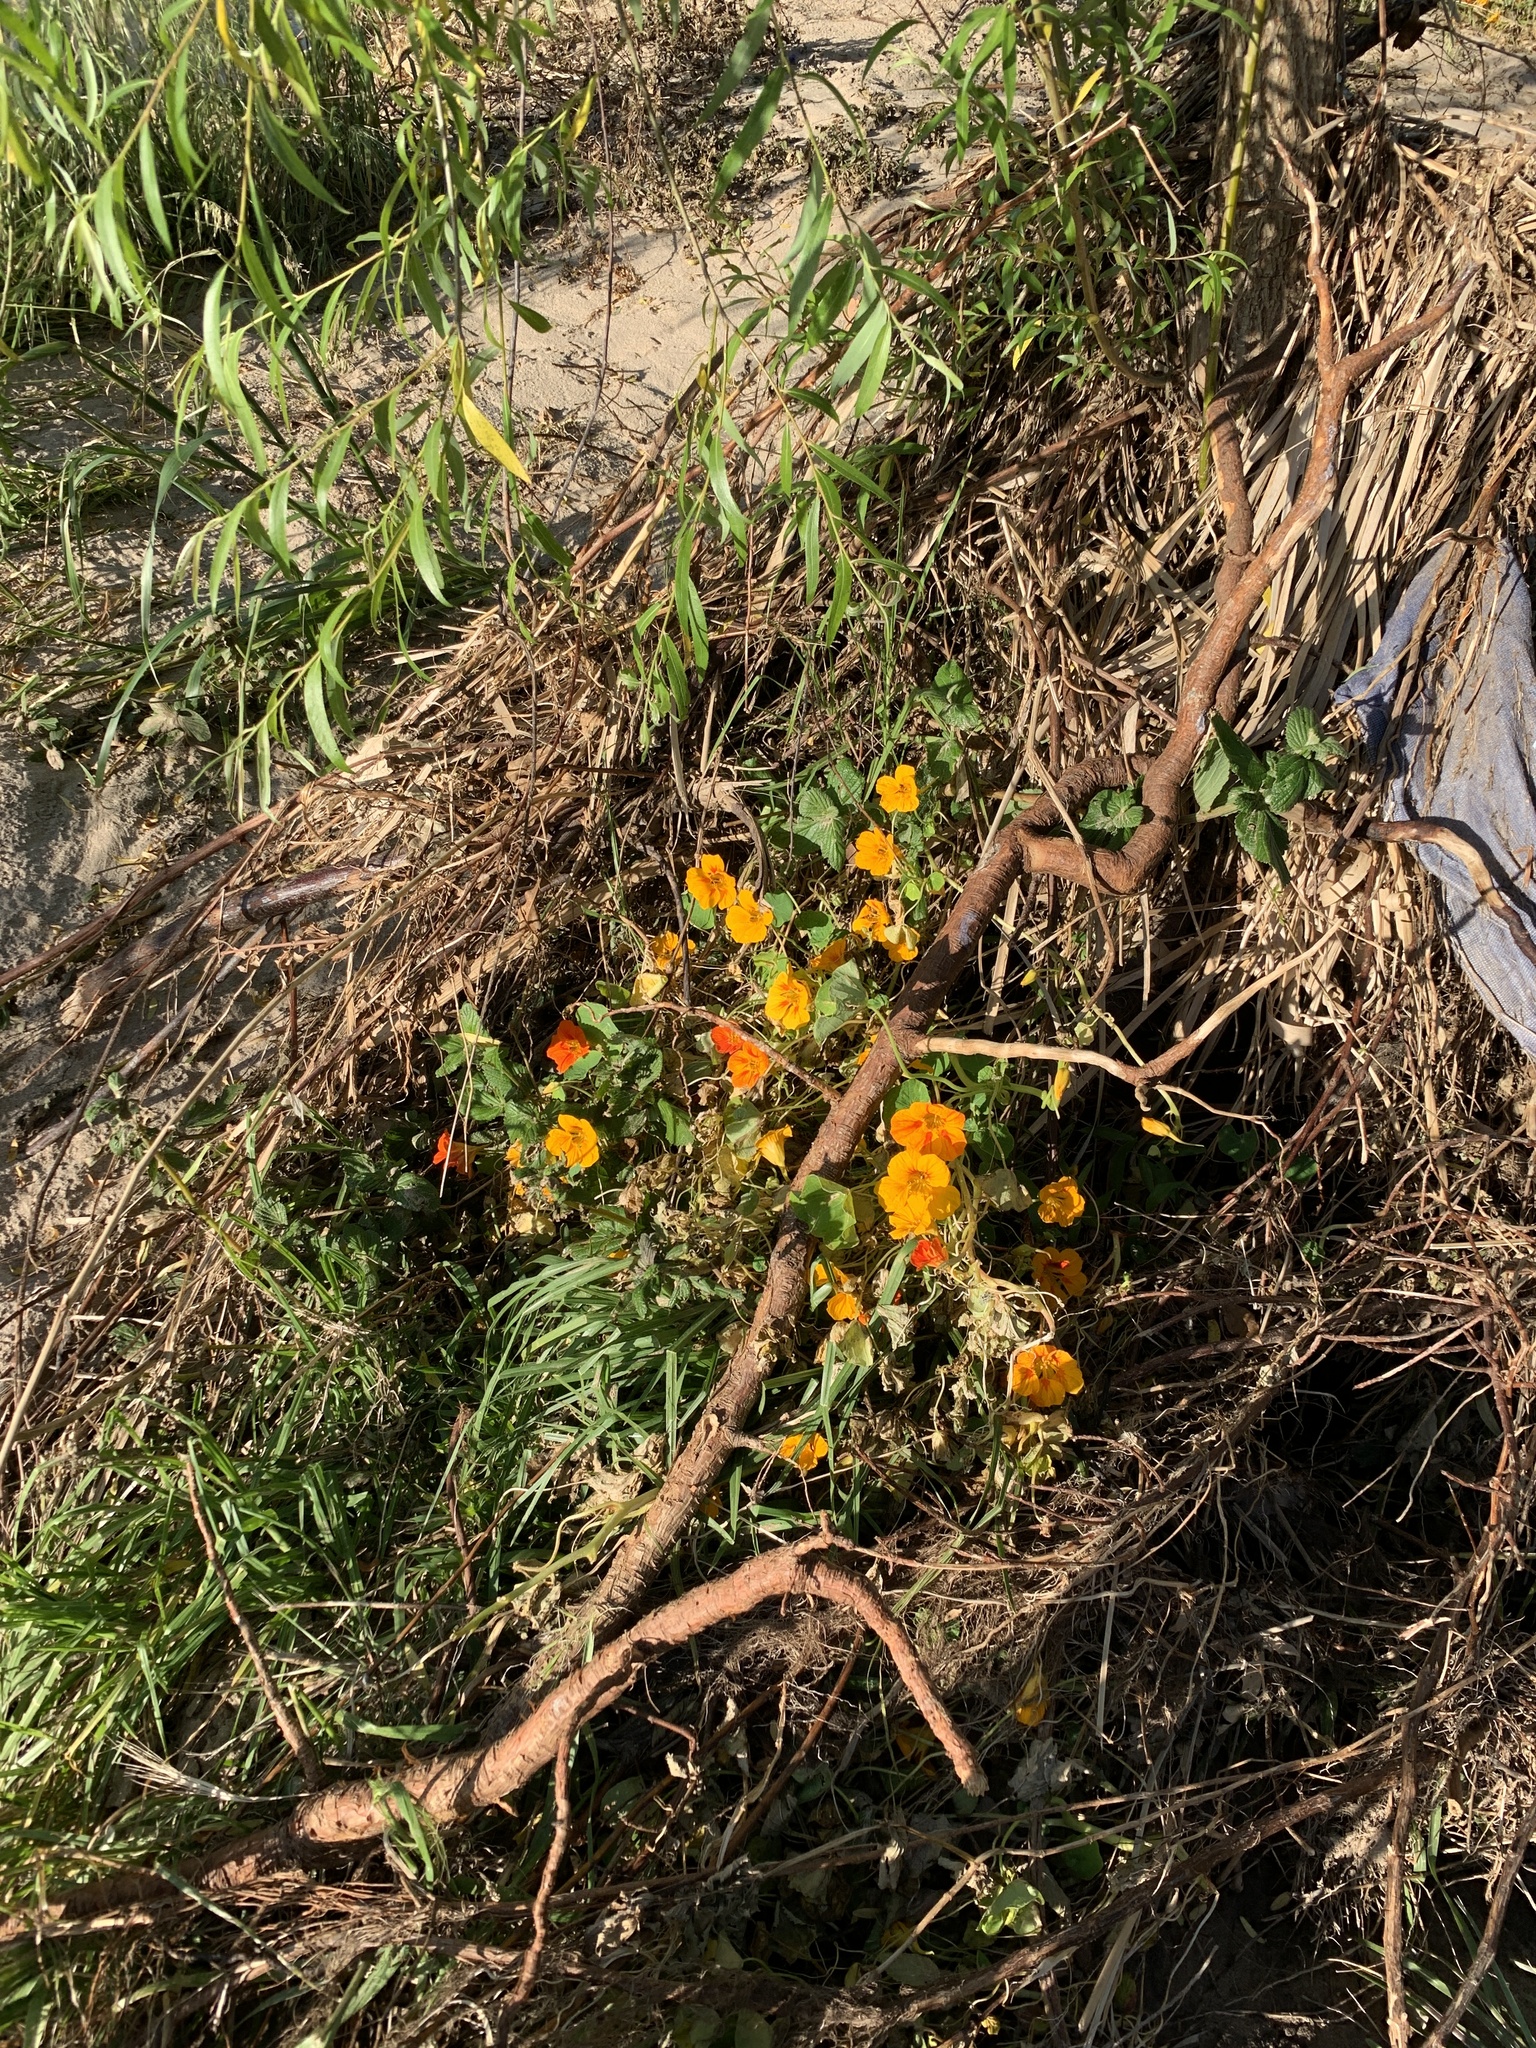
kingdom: Plantae
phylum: Tracheophyta
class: Magnoliopsida
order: Brassicales
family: Tropaeolaceae
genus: Tropaeolum
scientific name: Tropaeolum majus
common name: Nasturtium
